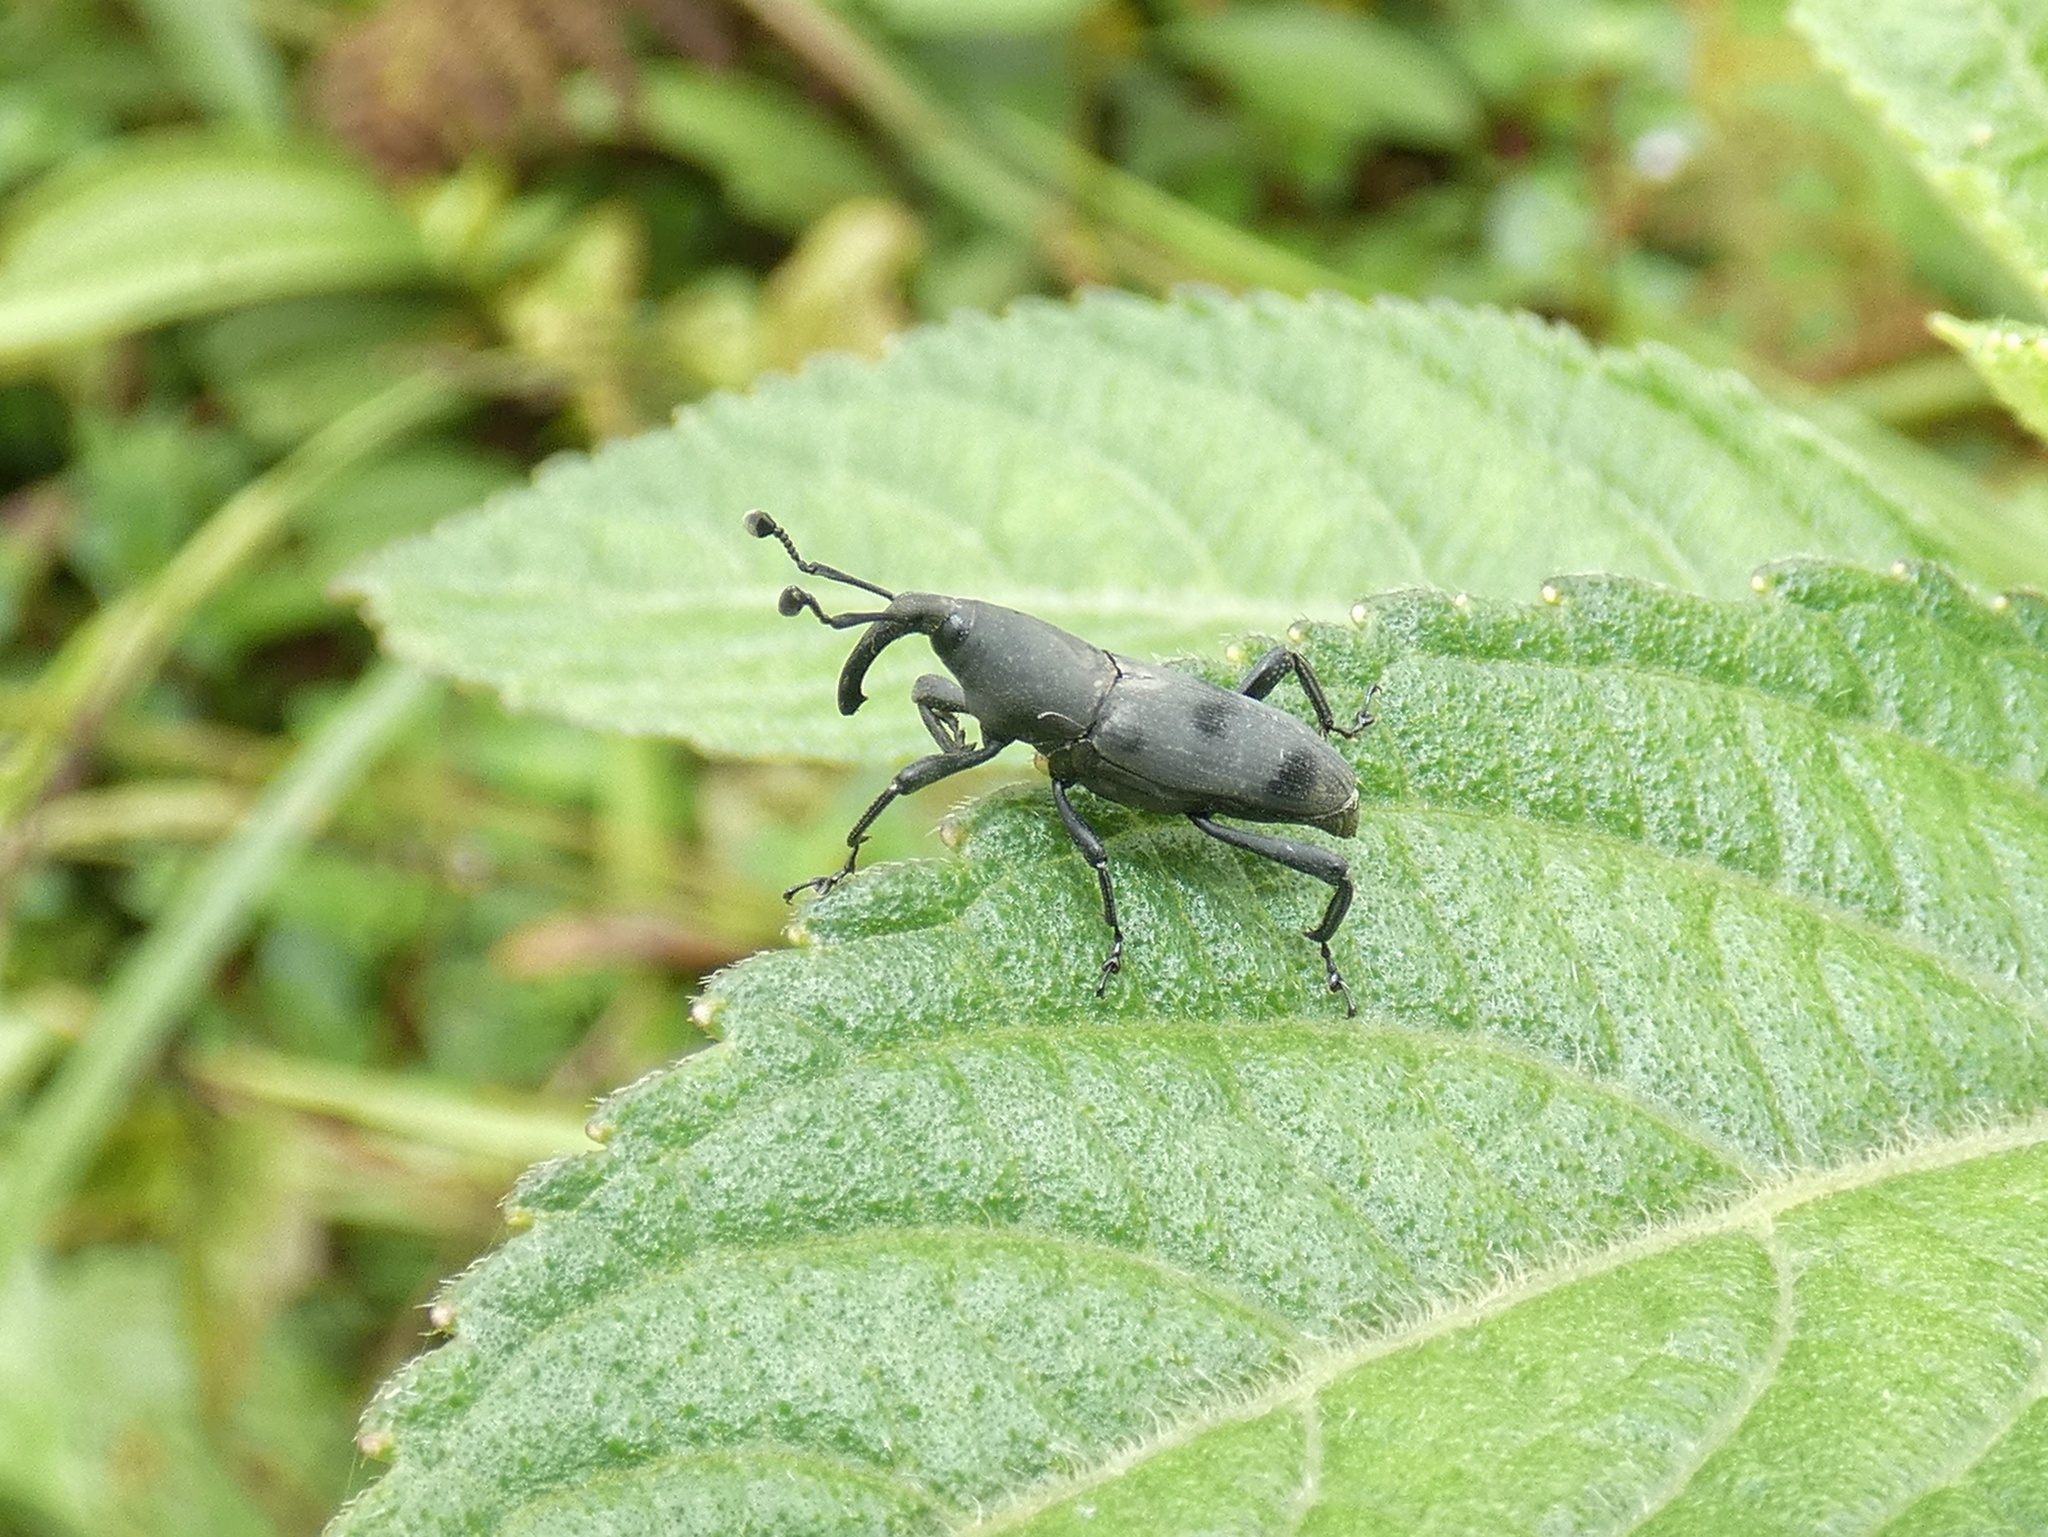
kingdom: Animalia
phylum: Arthropoda
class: Insecta
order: Coleoptera
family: Dryophthoridae
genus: Rhodobaenus
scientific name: Rhodobaenus nawradii
